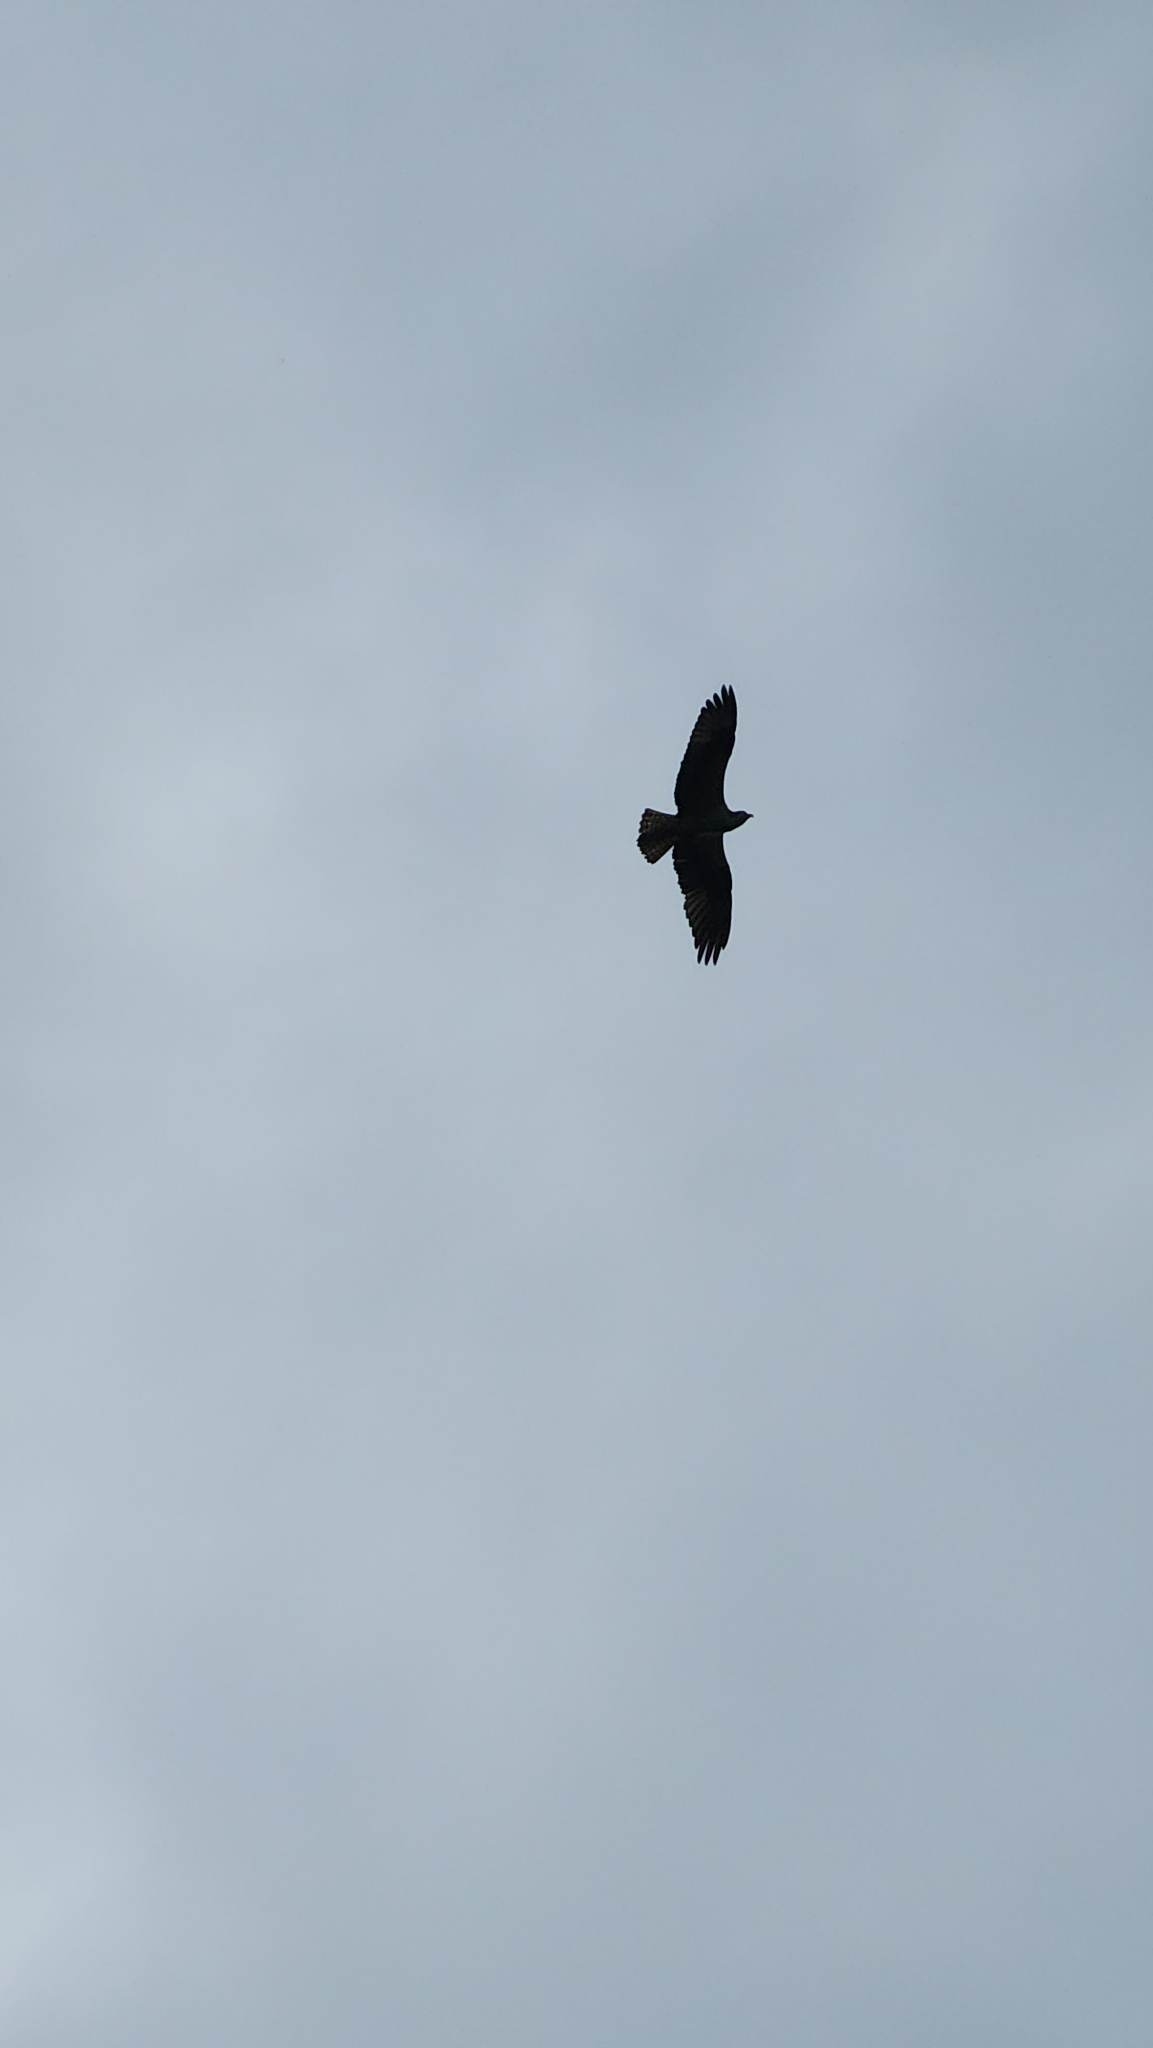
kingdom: Animalia
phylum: Chordata
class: Aves
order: Accipitriformes
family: Pandionidae
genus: Pandion
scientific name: Pandion haliaetus
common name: Osprey
